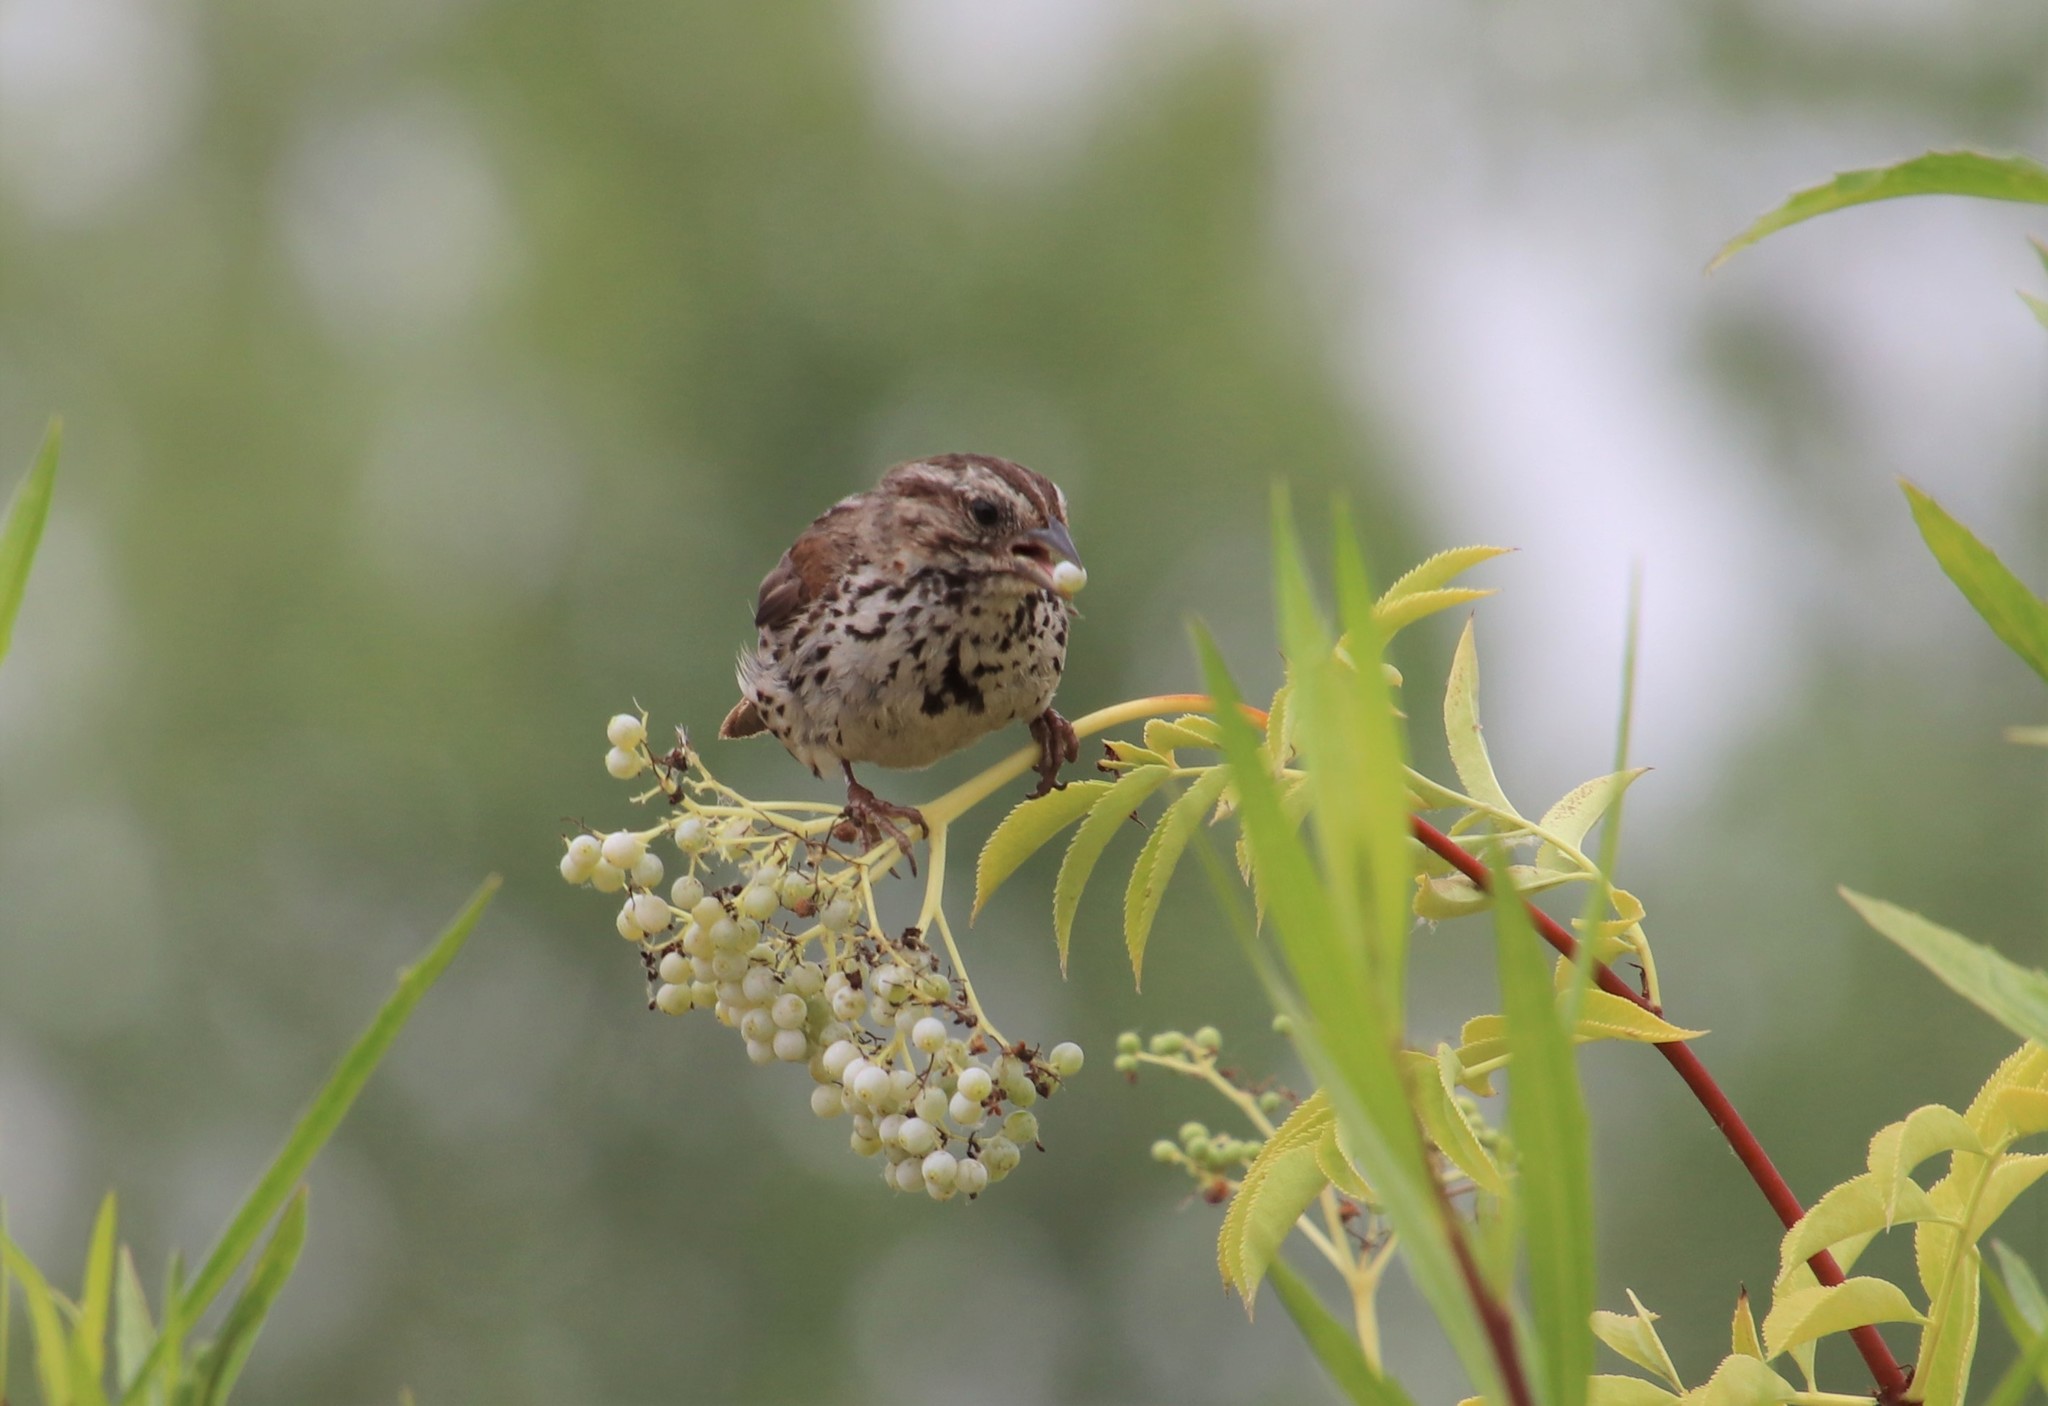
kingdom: Animalia
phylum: Chordata
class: Aves
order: Passeriformes
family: Passerellidae
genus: Melospiza
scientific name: Melospiza melodia
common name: Song sparrow
